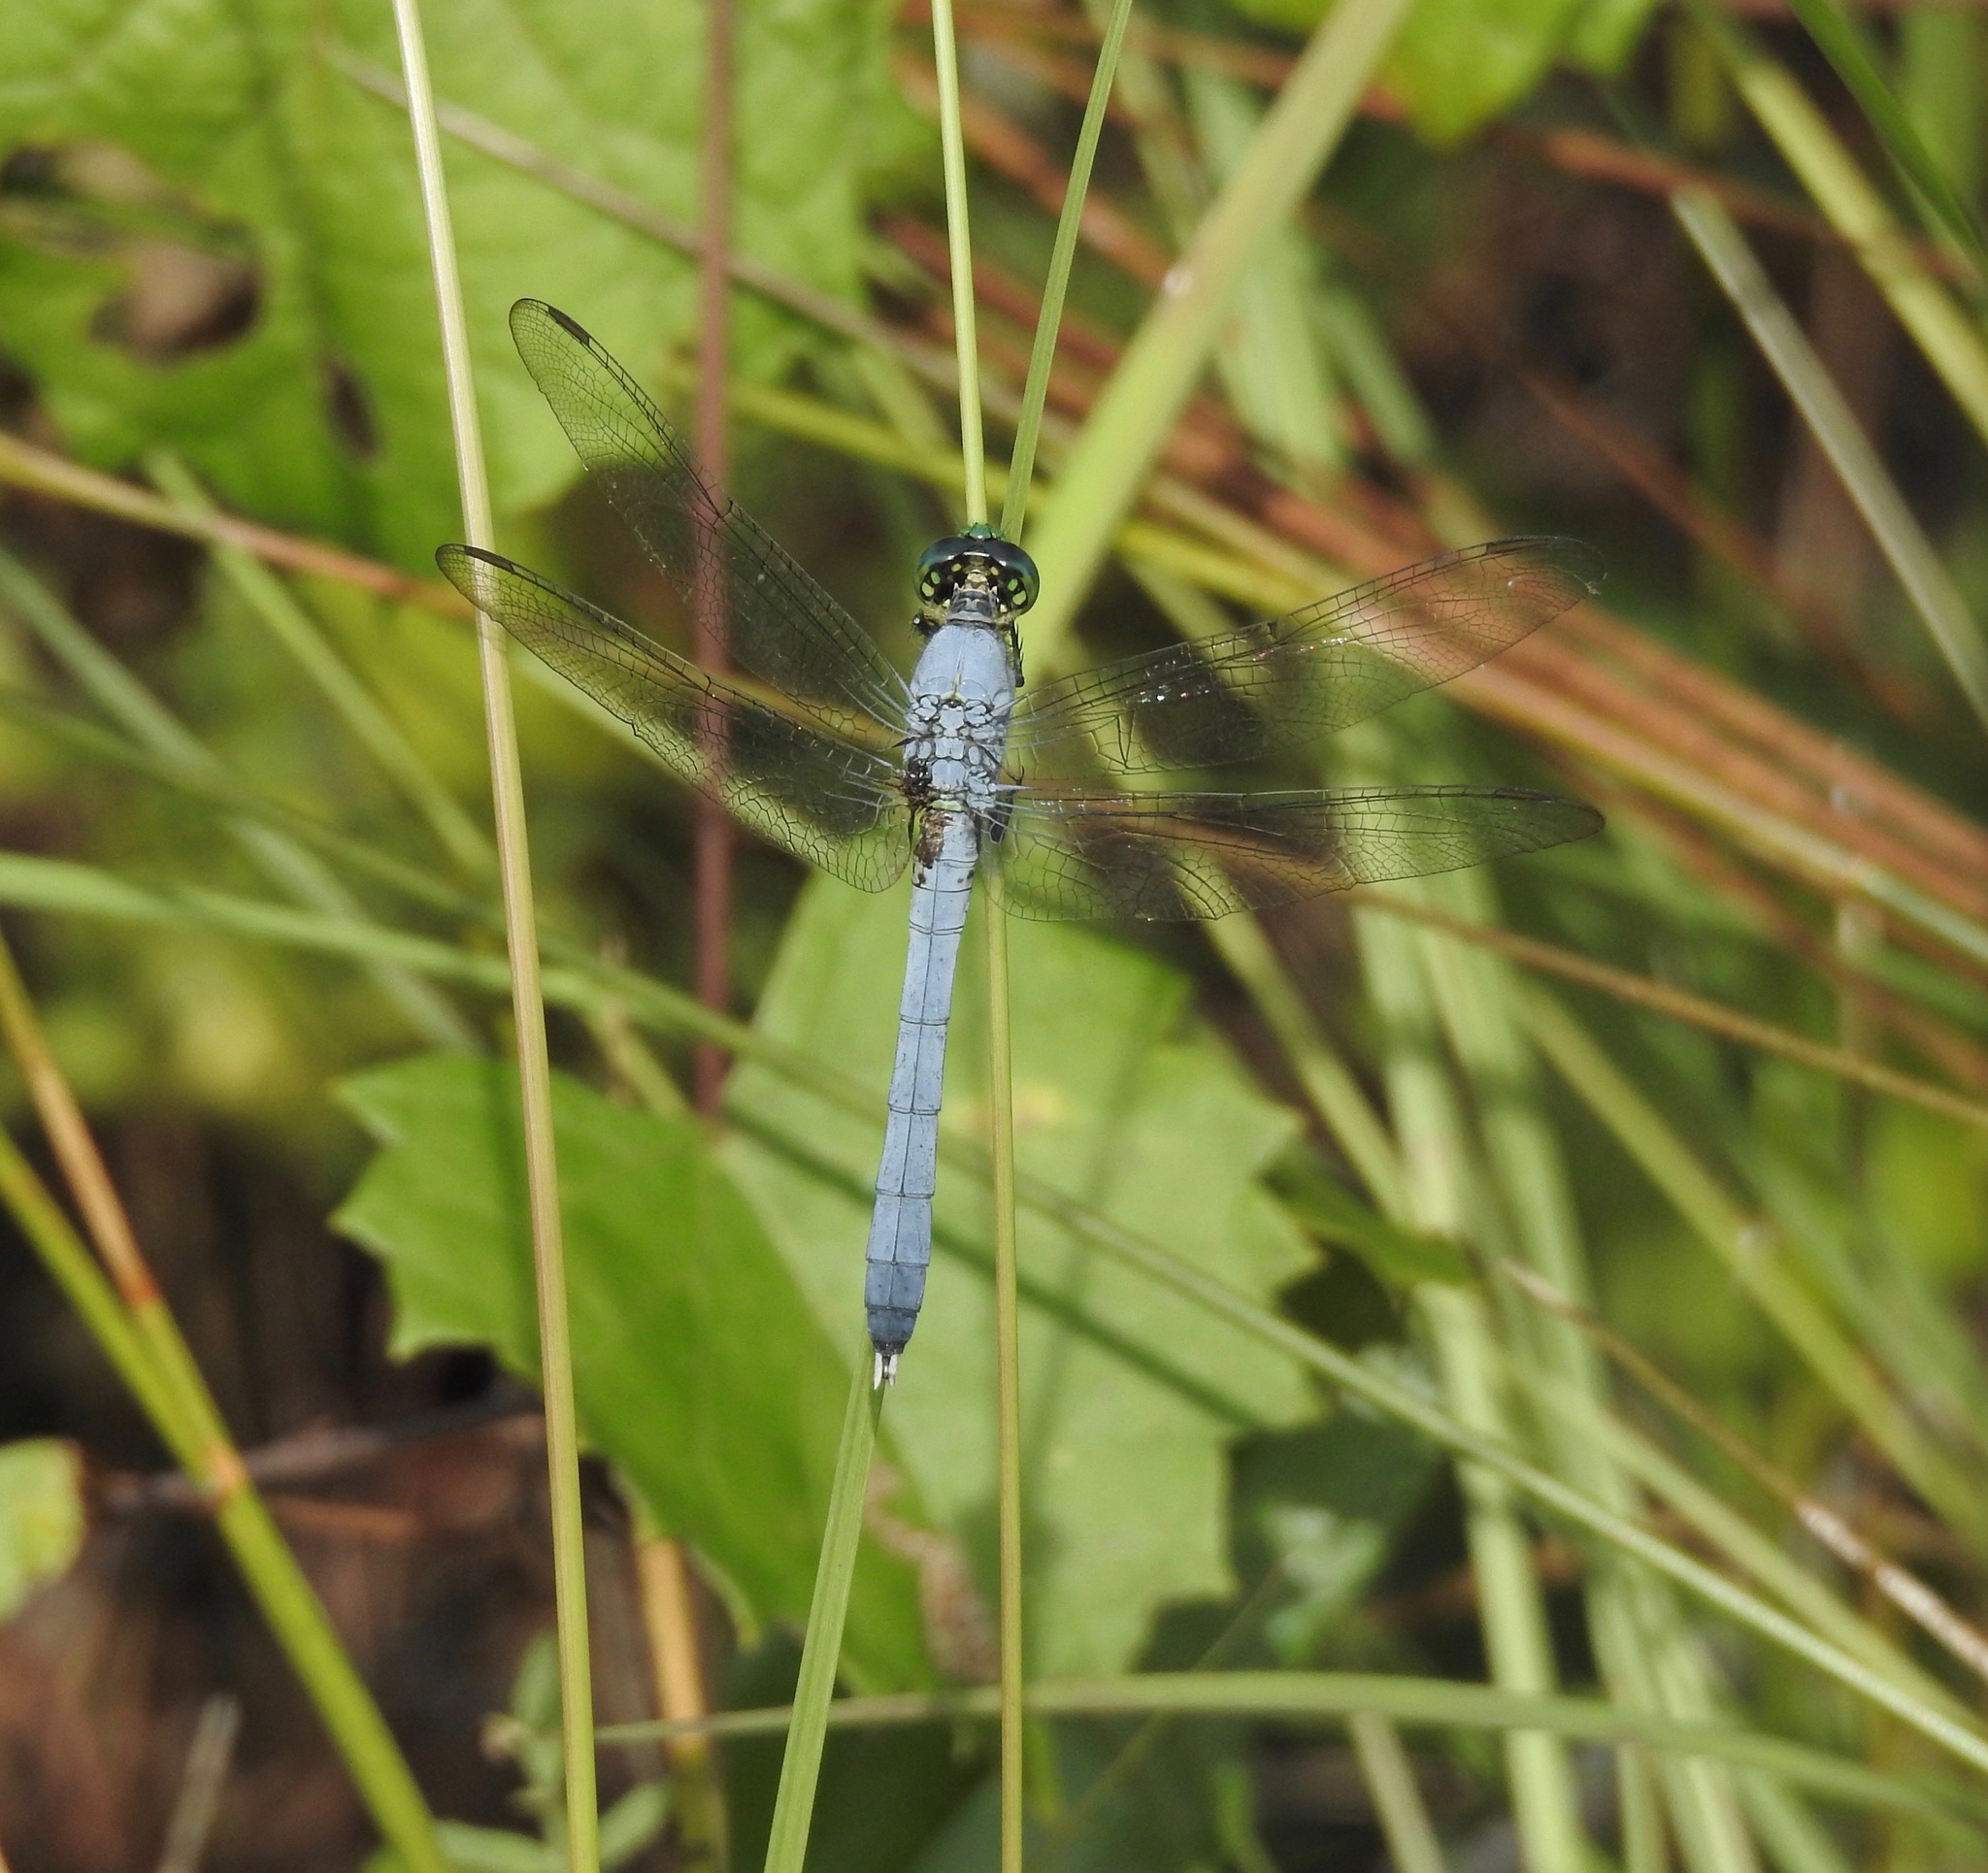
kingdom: Animalia
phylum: Arthropoda
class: Insecta
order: Odonata
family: Libellulidae
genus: Erythemis
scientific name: Erythemis simplicicollis
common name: Eastern pondhawk
